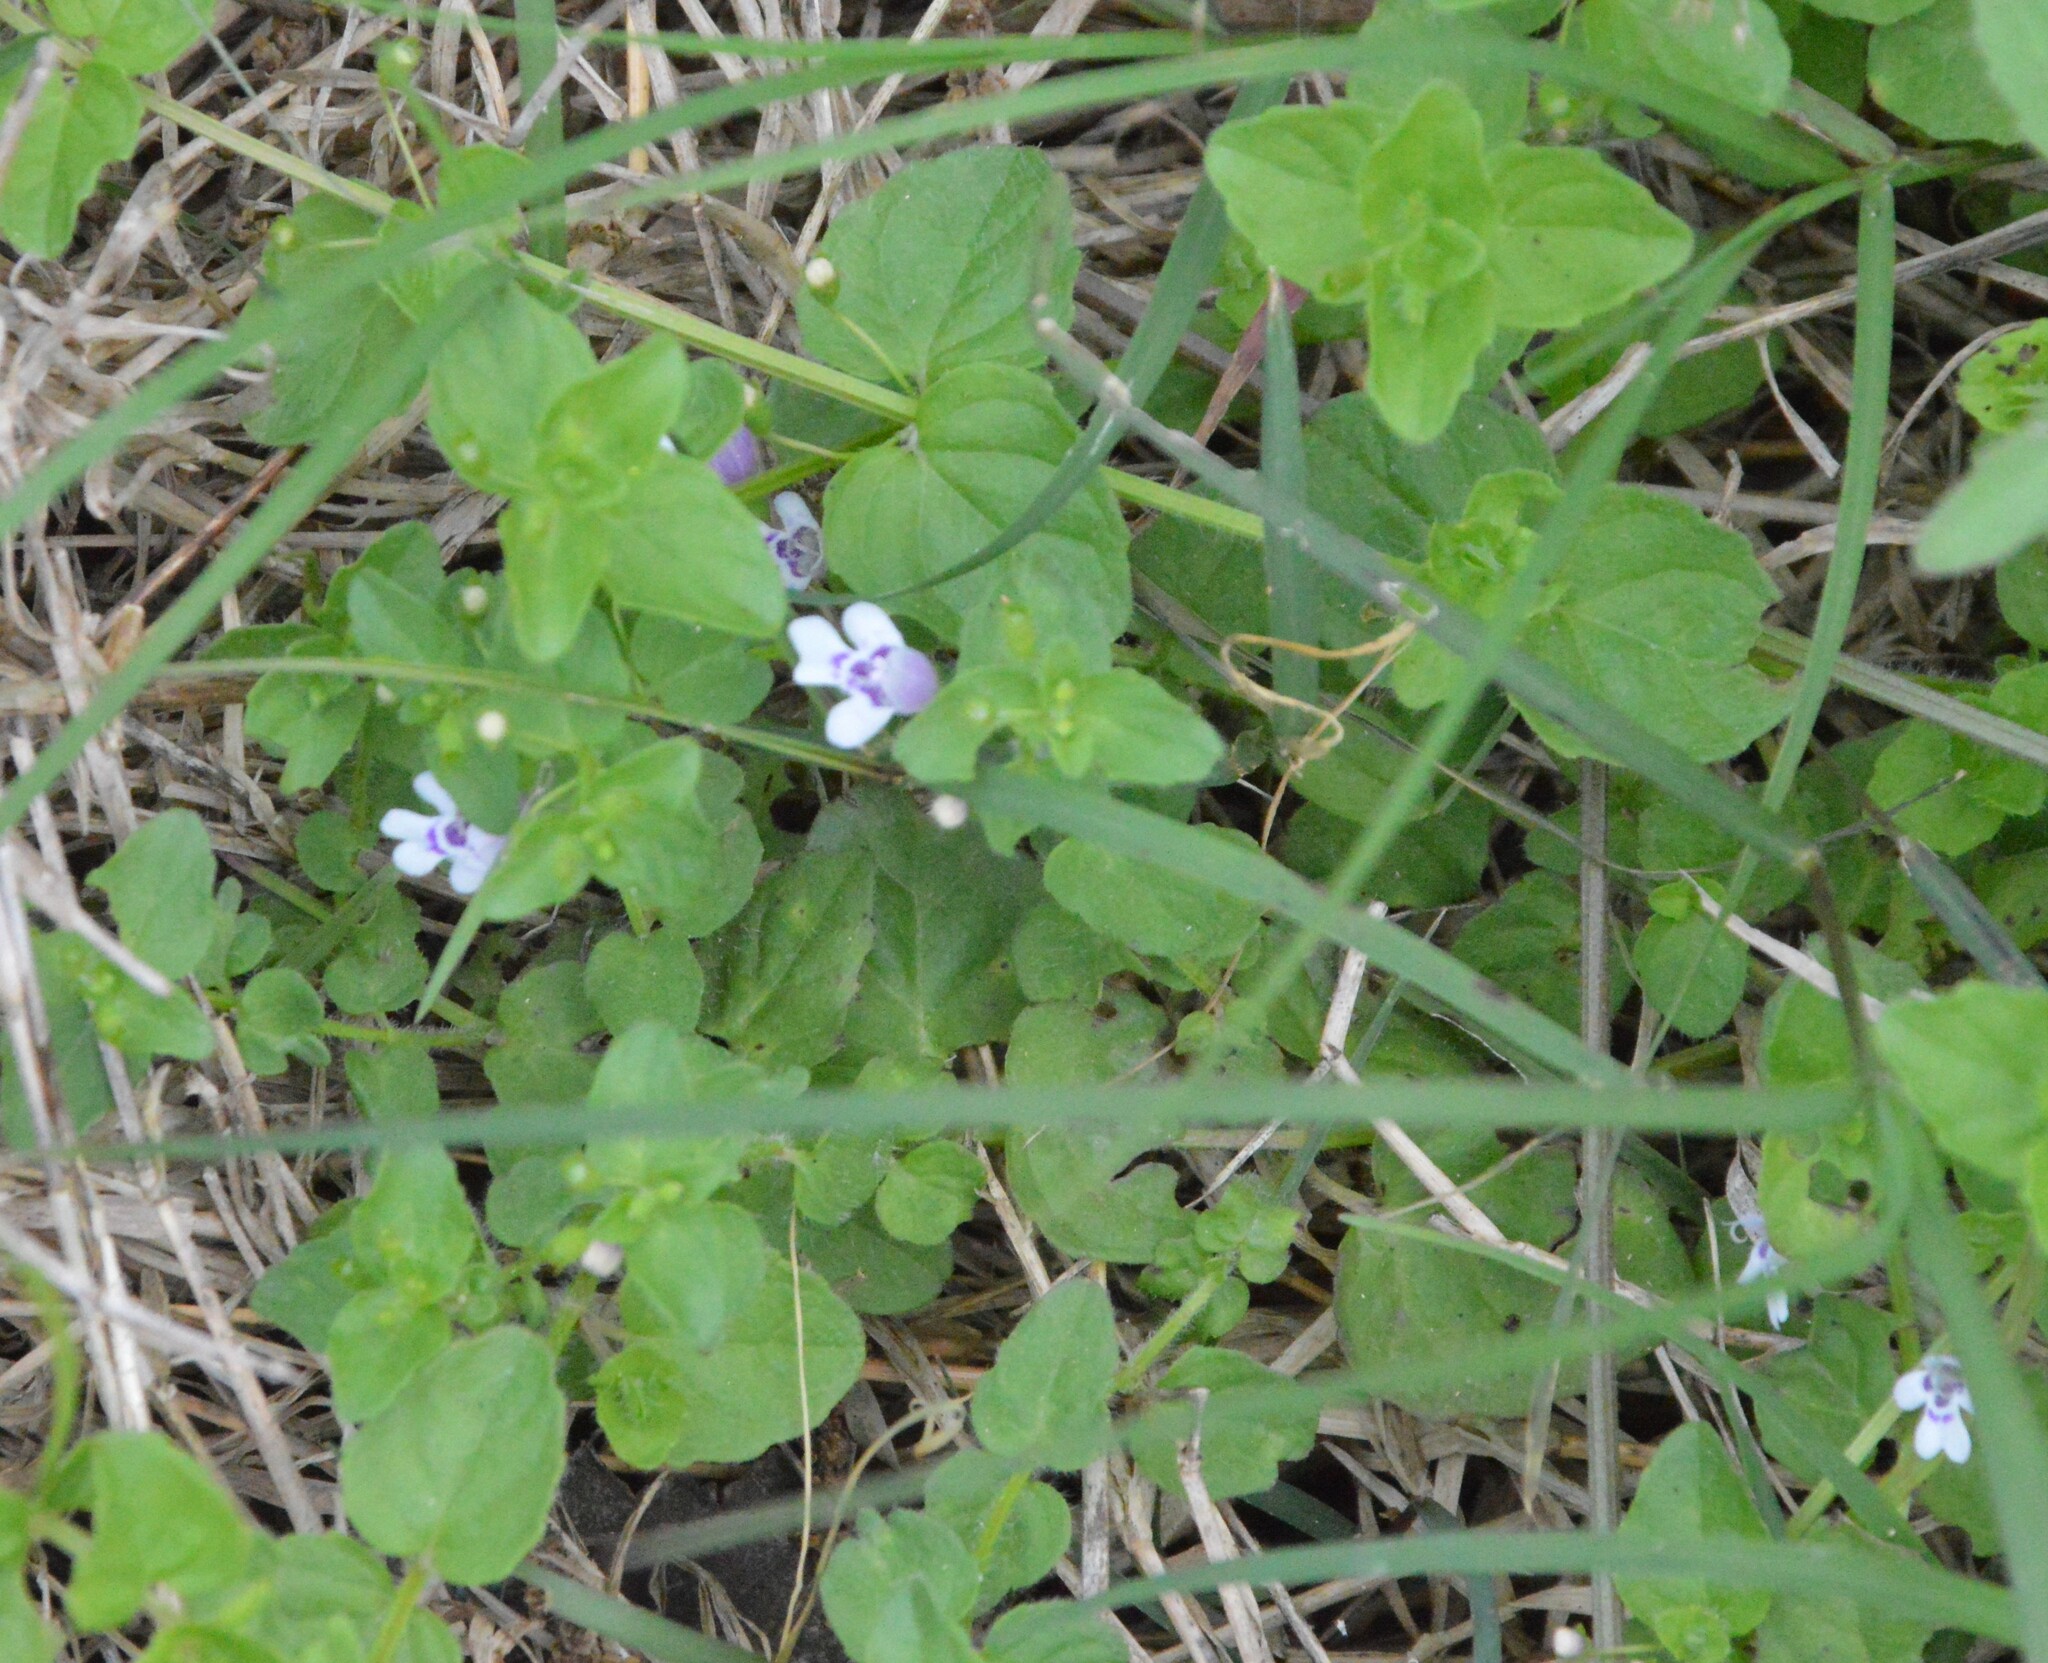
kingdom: Plantae
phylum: Tracheophyta
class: Magnoliopsida
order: Lamiales
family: Lamiaceae
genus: Clinopodium
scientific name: Clinopodium brownei
